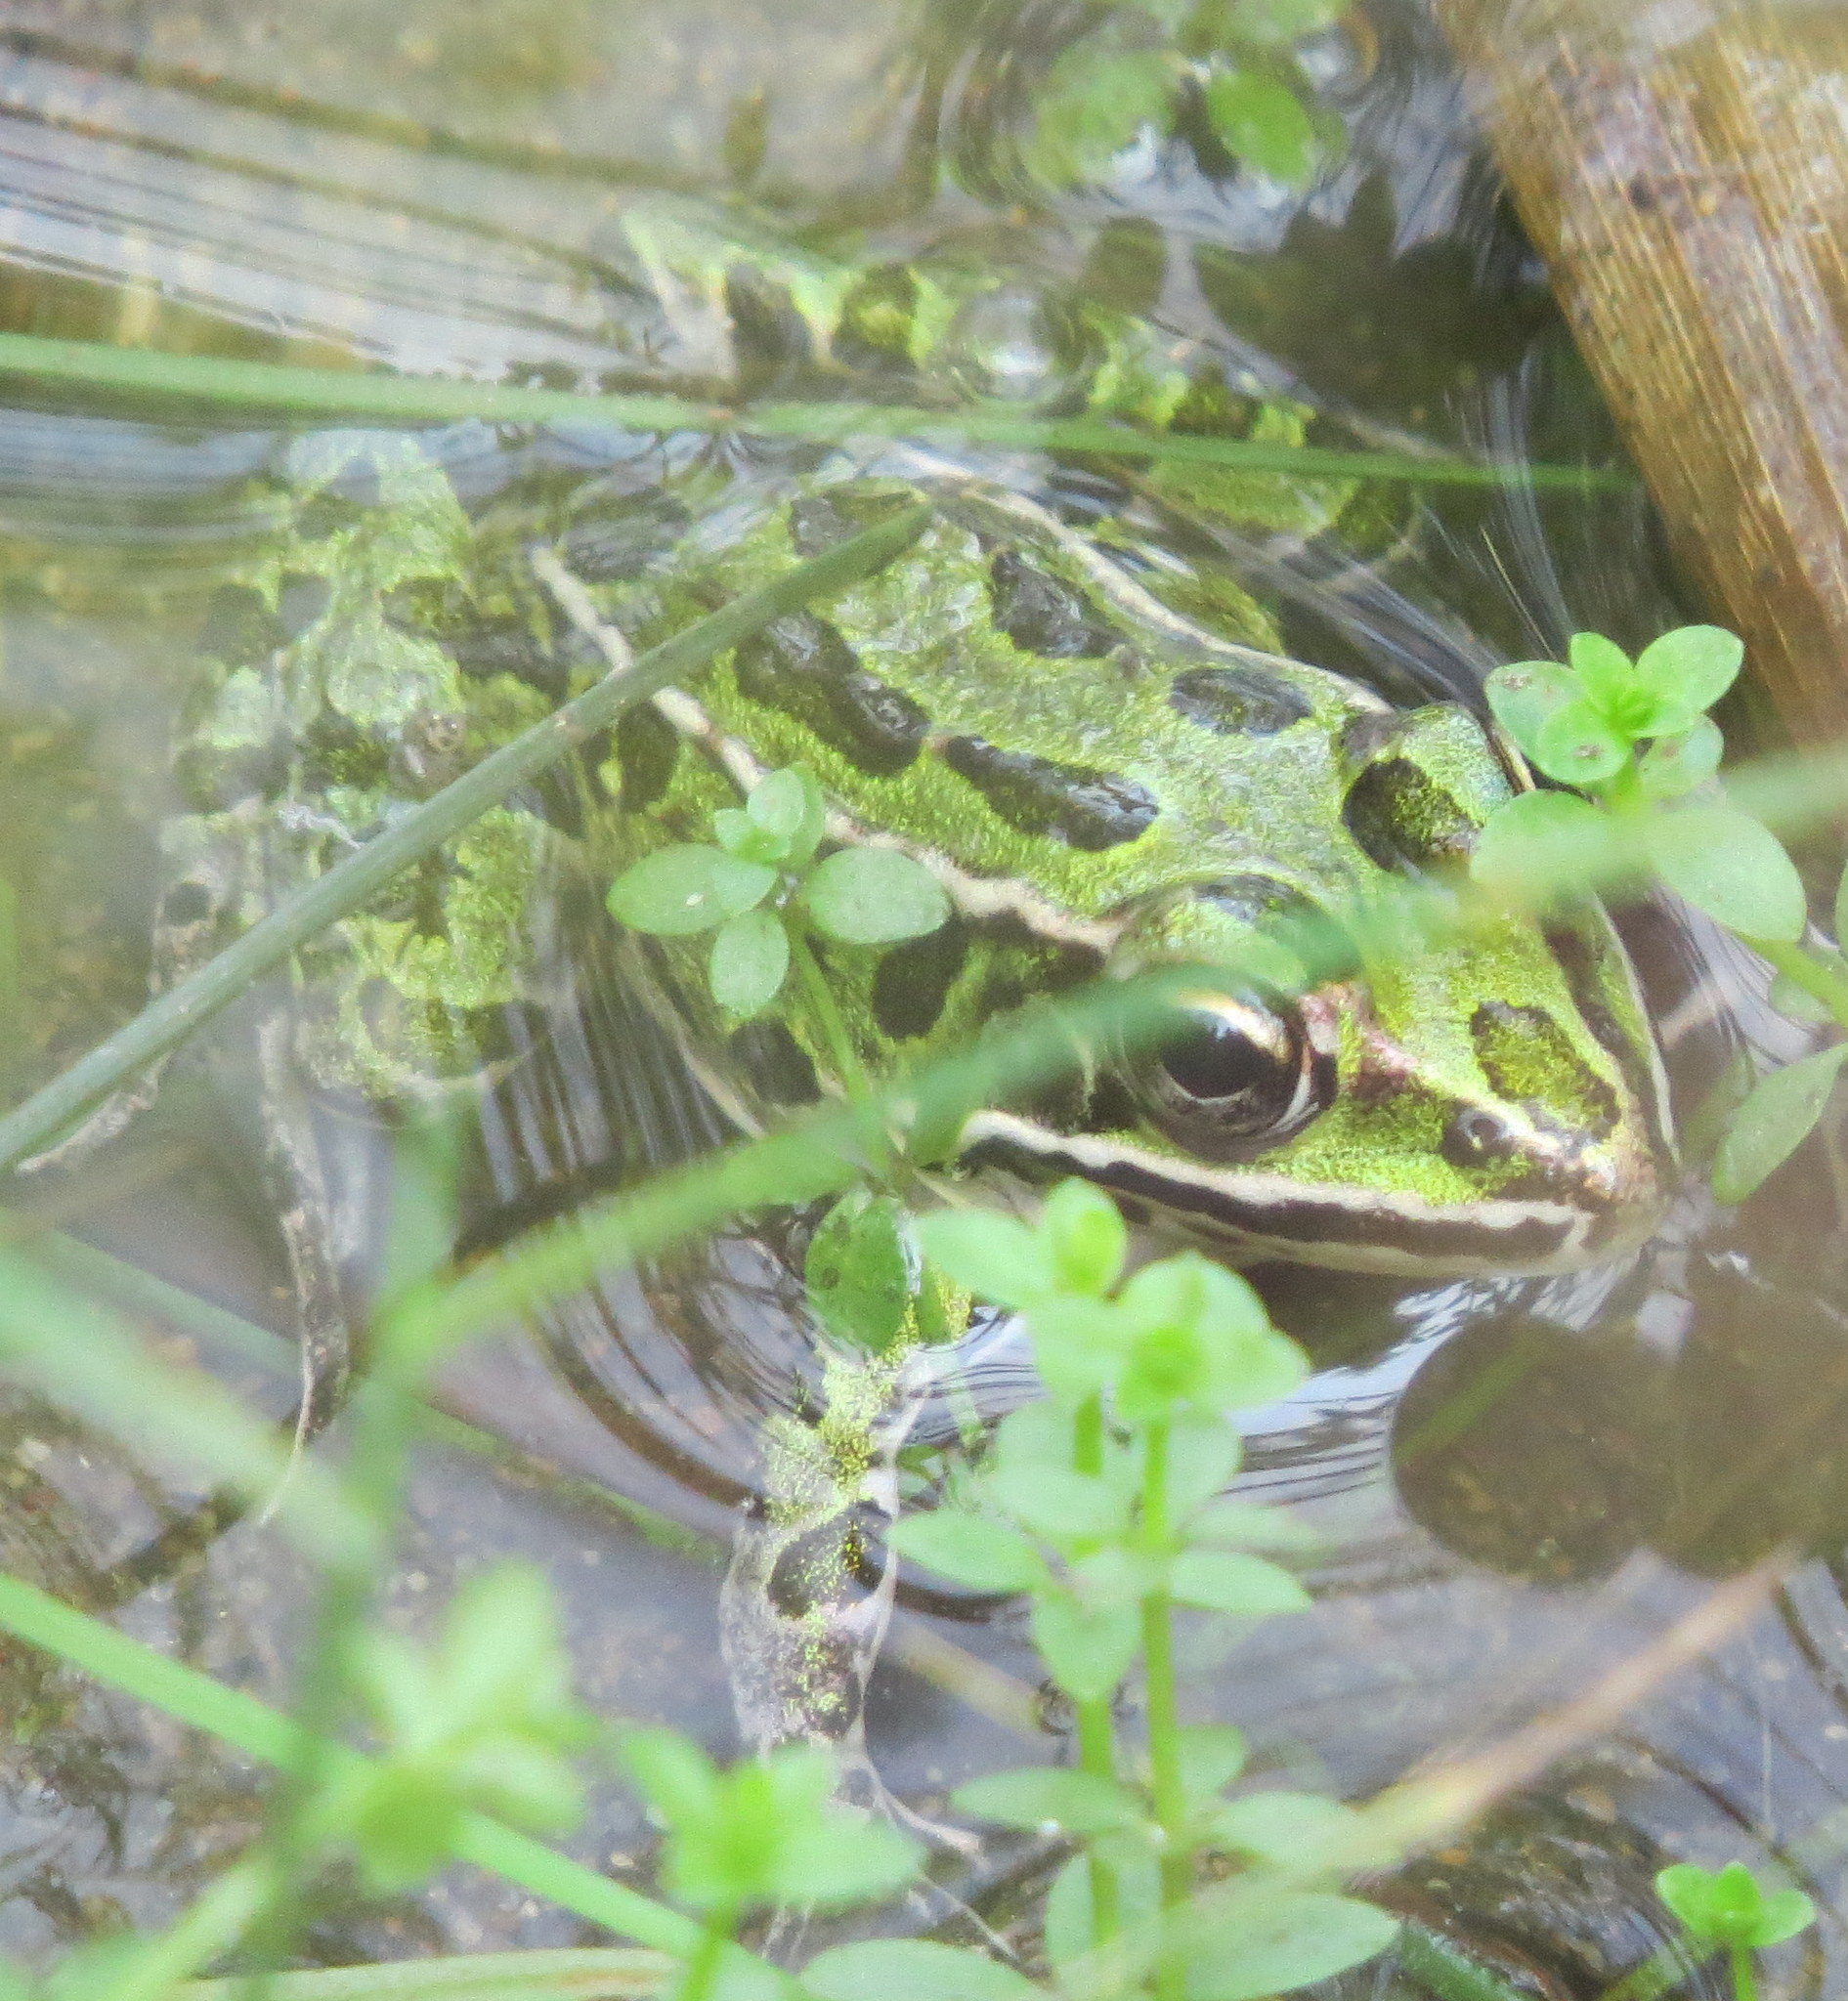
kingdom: Animalia
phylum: Chordata
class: Amphibia
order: Anura
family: Ranidae
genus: Lithobates
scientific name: Lithobates pipiens
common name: Northern leopard frog
